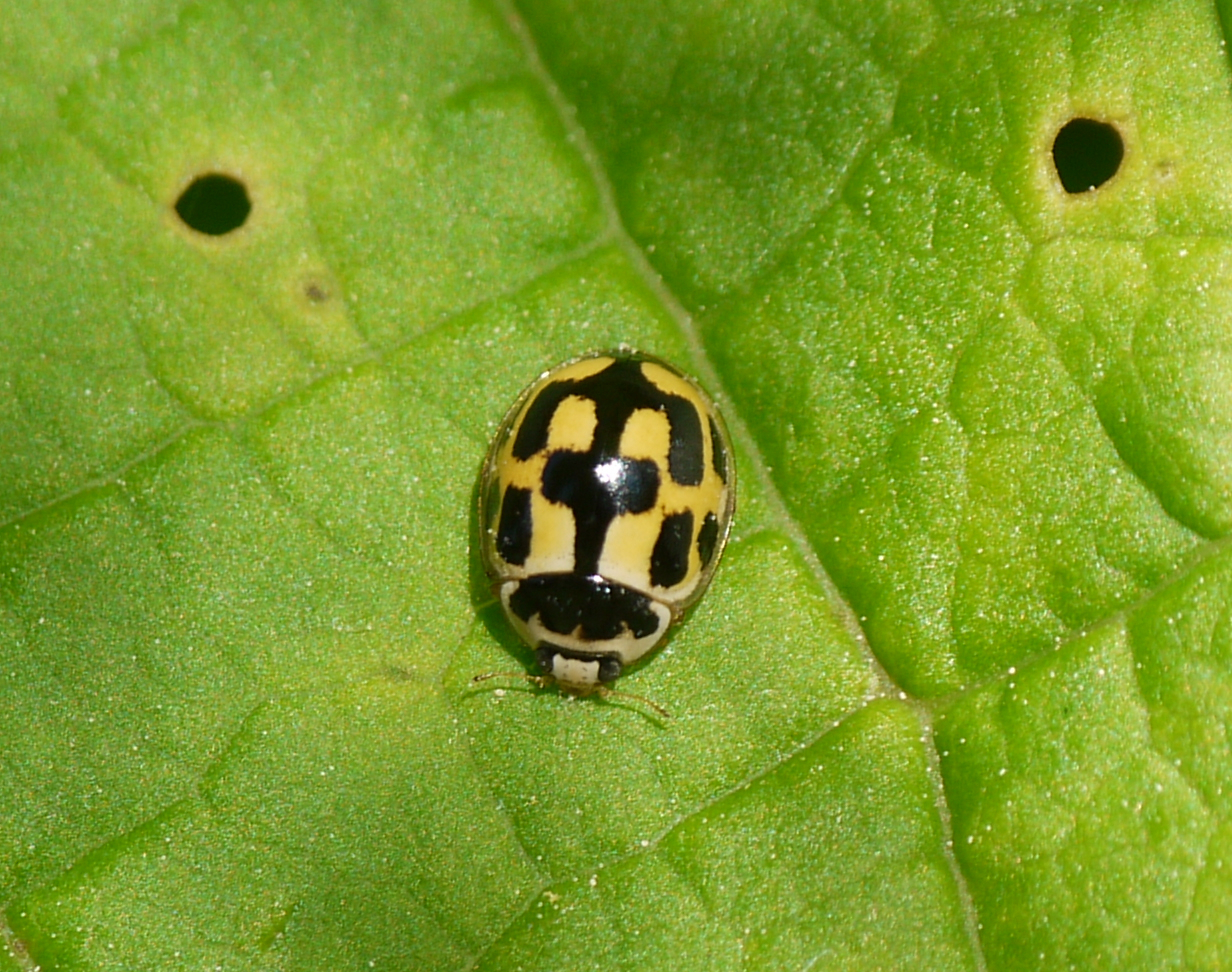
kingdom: Animalia
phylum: Arthropoda
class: Insecta
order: Coleoptera
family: Coccinellidae
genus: Propylaea
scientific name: Propylaea quatuordecimpunctata
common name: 14-spotted ladybird beetle
